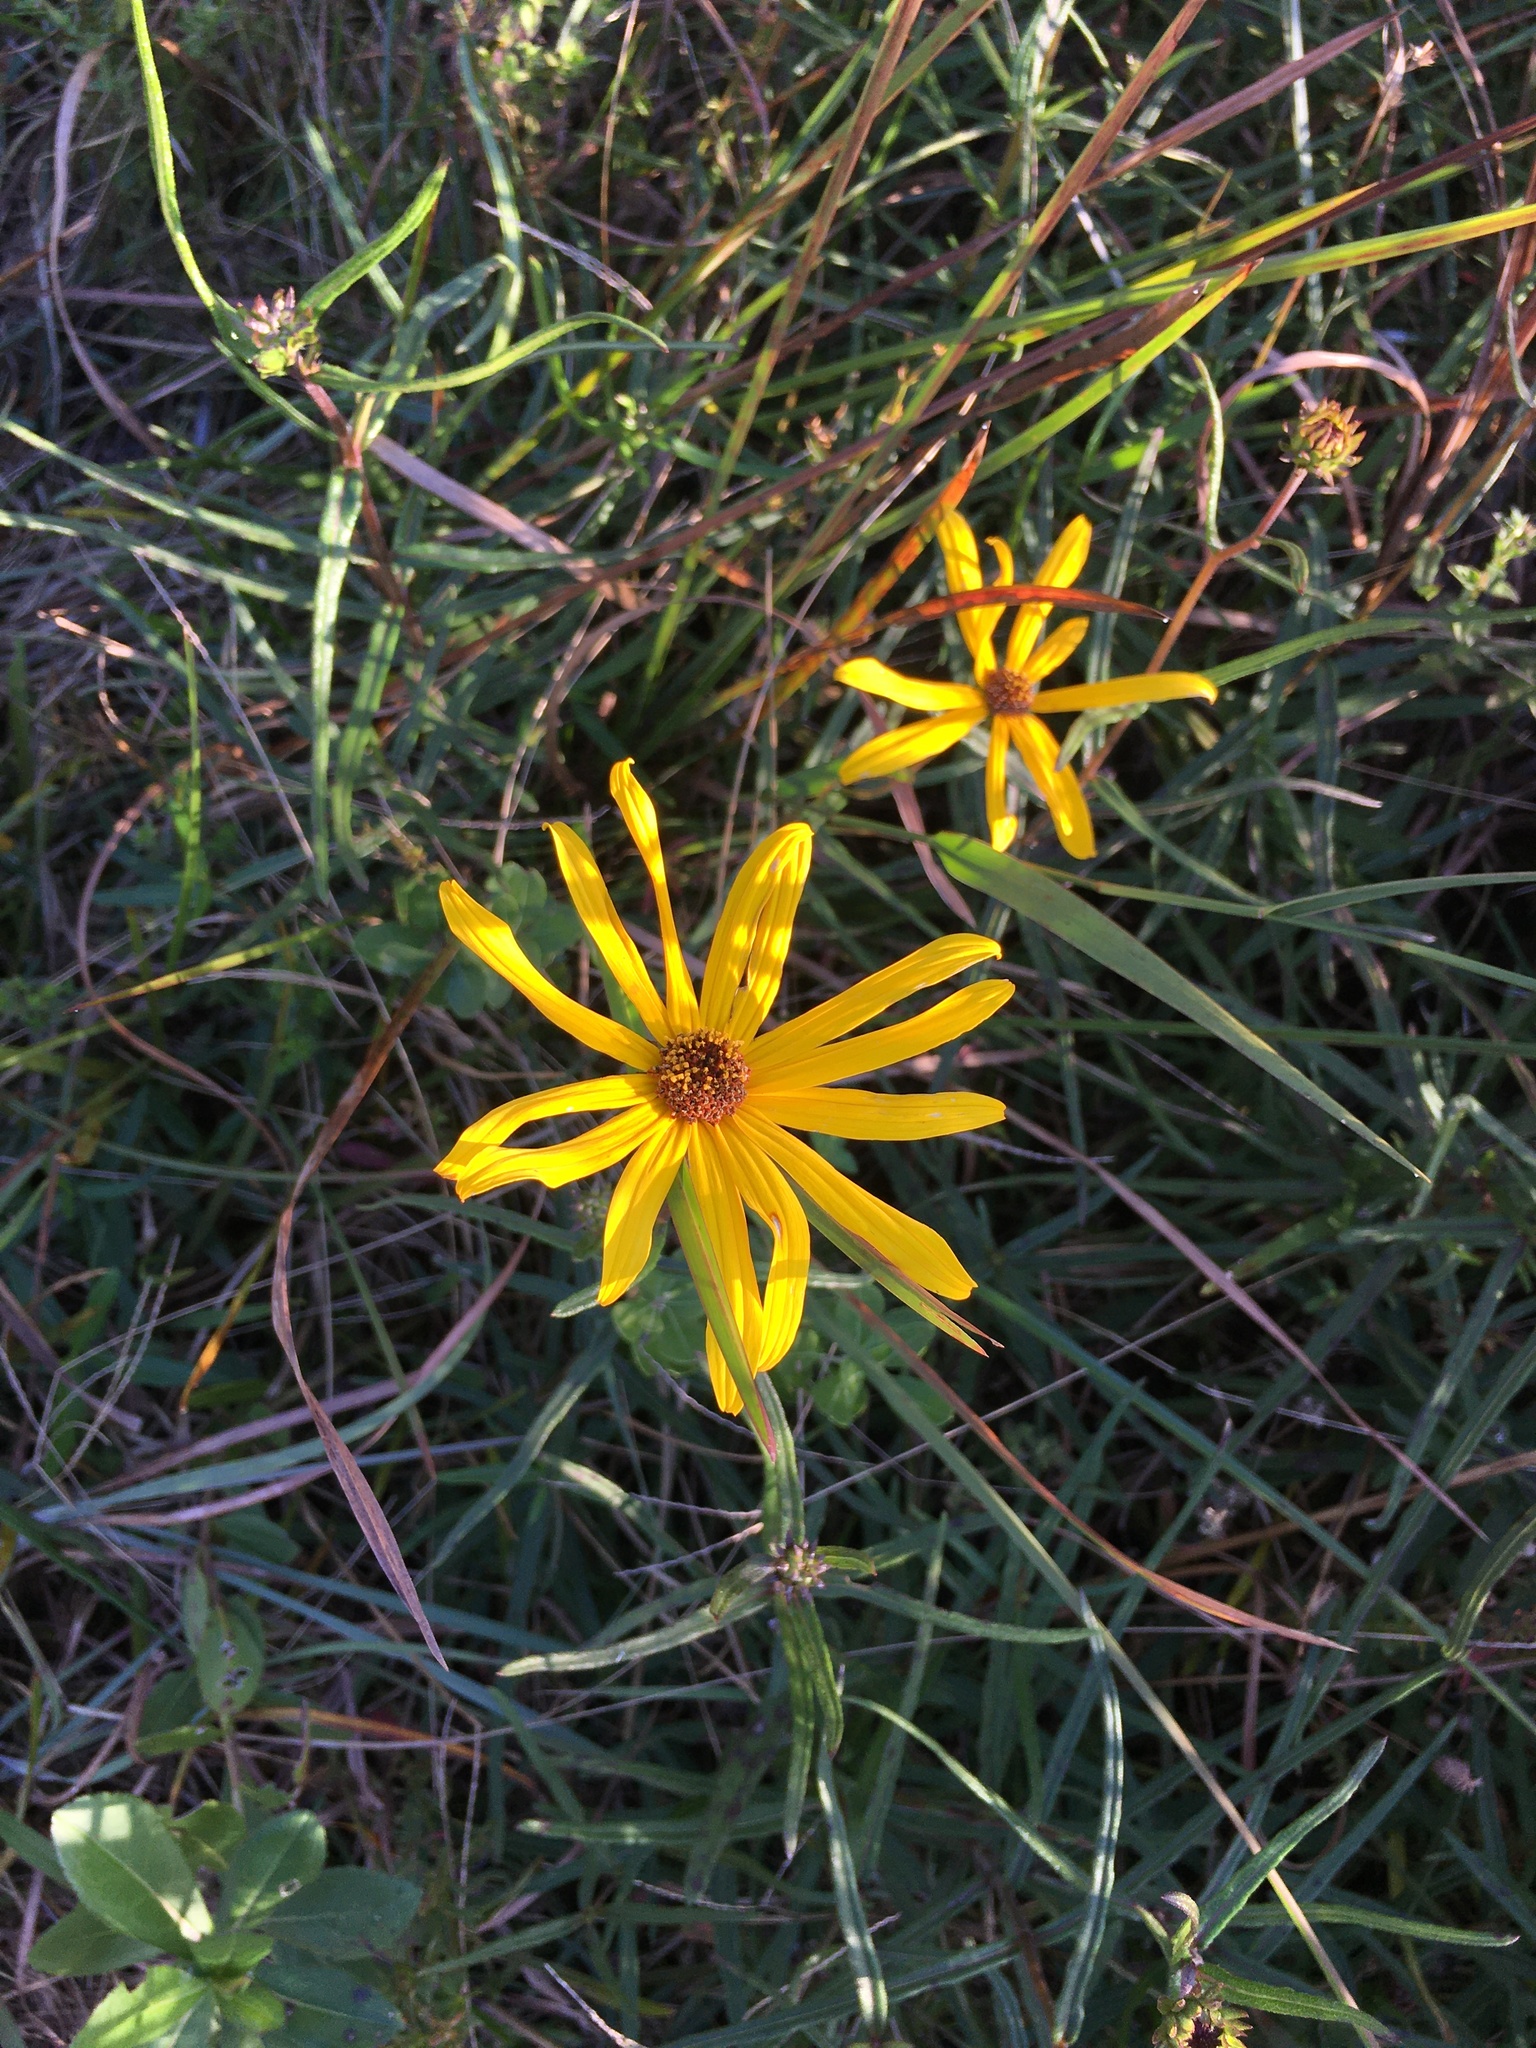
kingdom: Plantae
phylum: Tracheophyta
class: Magnoliopsida
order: Asterales
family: Asteraceae
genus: Helianthus
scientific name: Helianthus angustifolius
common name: Swamp sunflower
